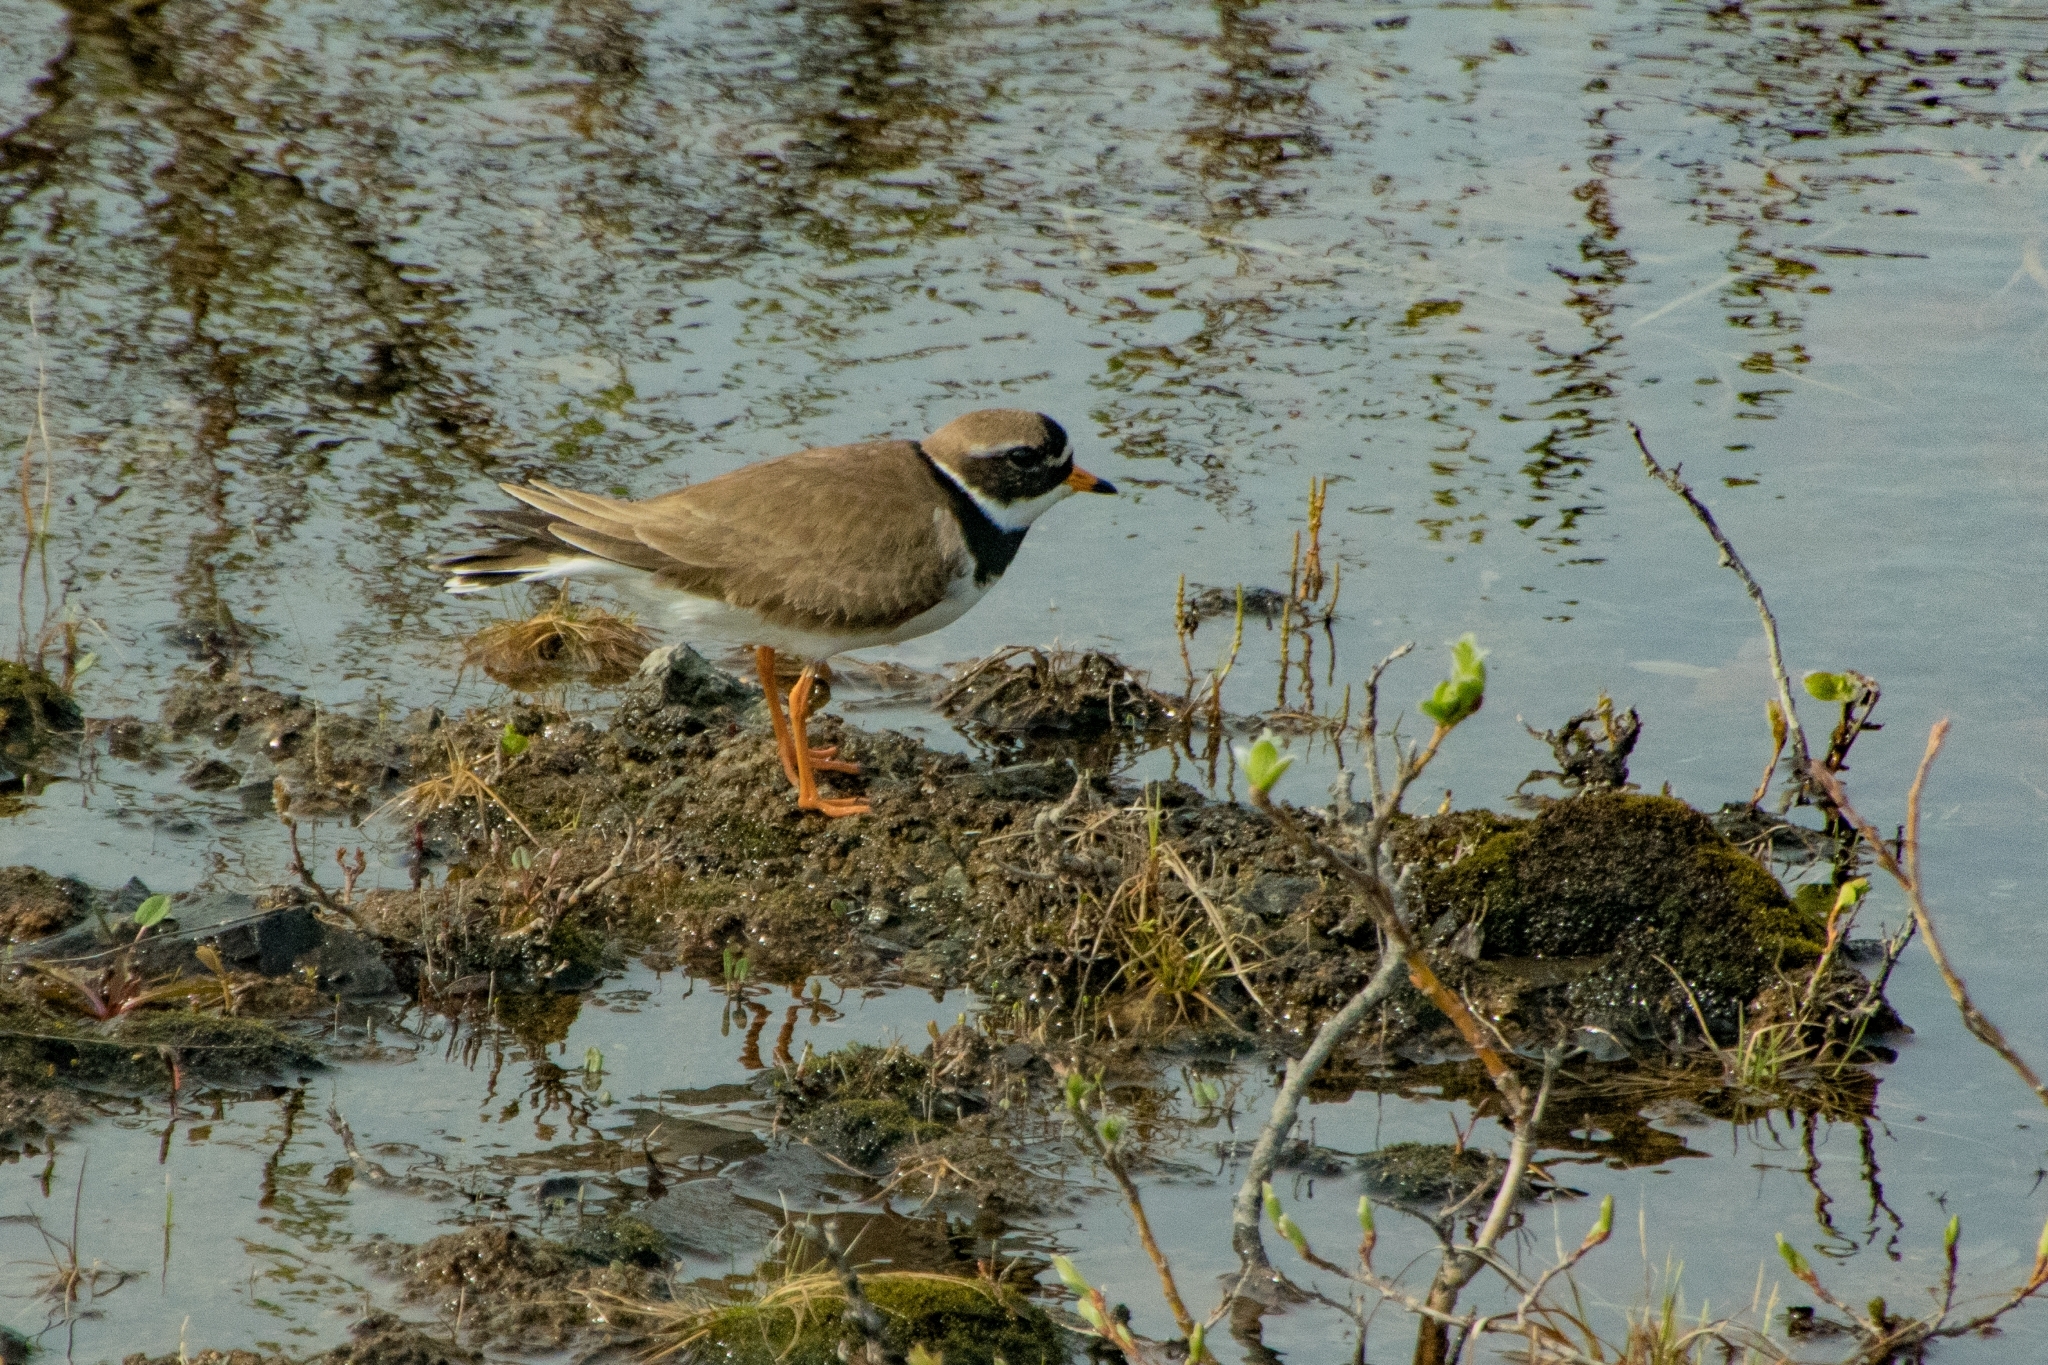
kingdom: Animalia
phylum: Chordata
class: Aves
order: Charadriiformes
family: Charadriidae
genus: Charadrius
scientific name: Charadrius hiaticula
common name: Common ringed plover
